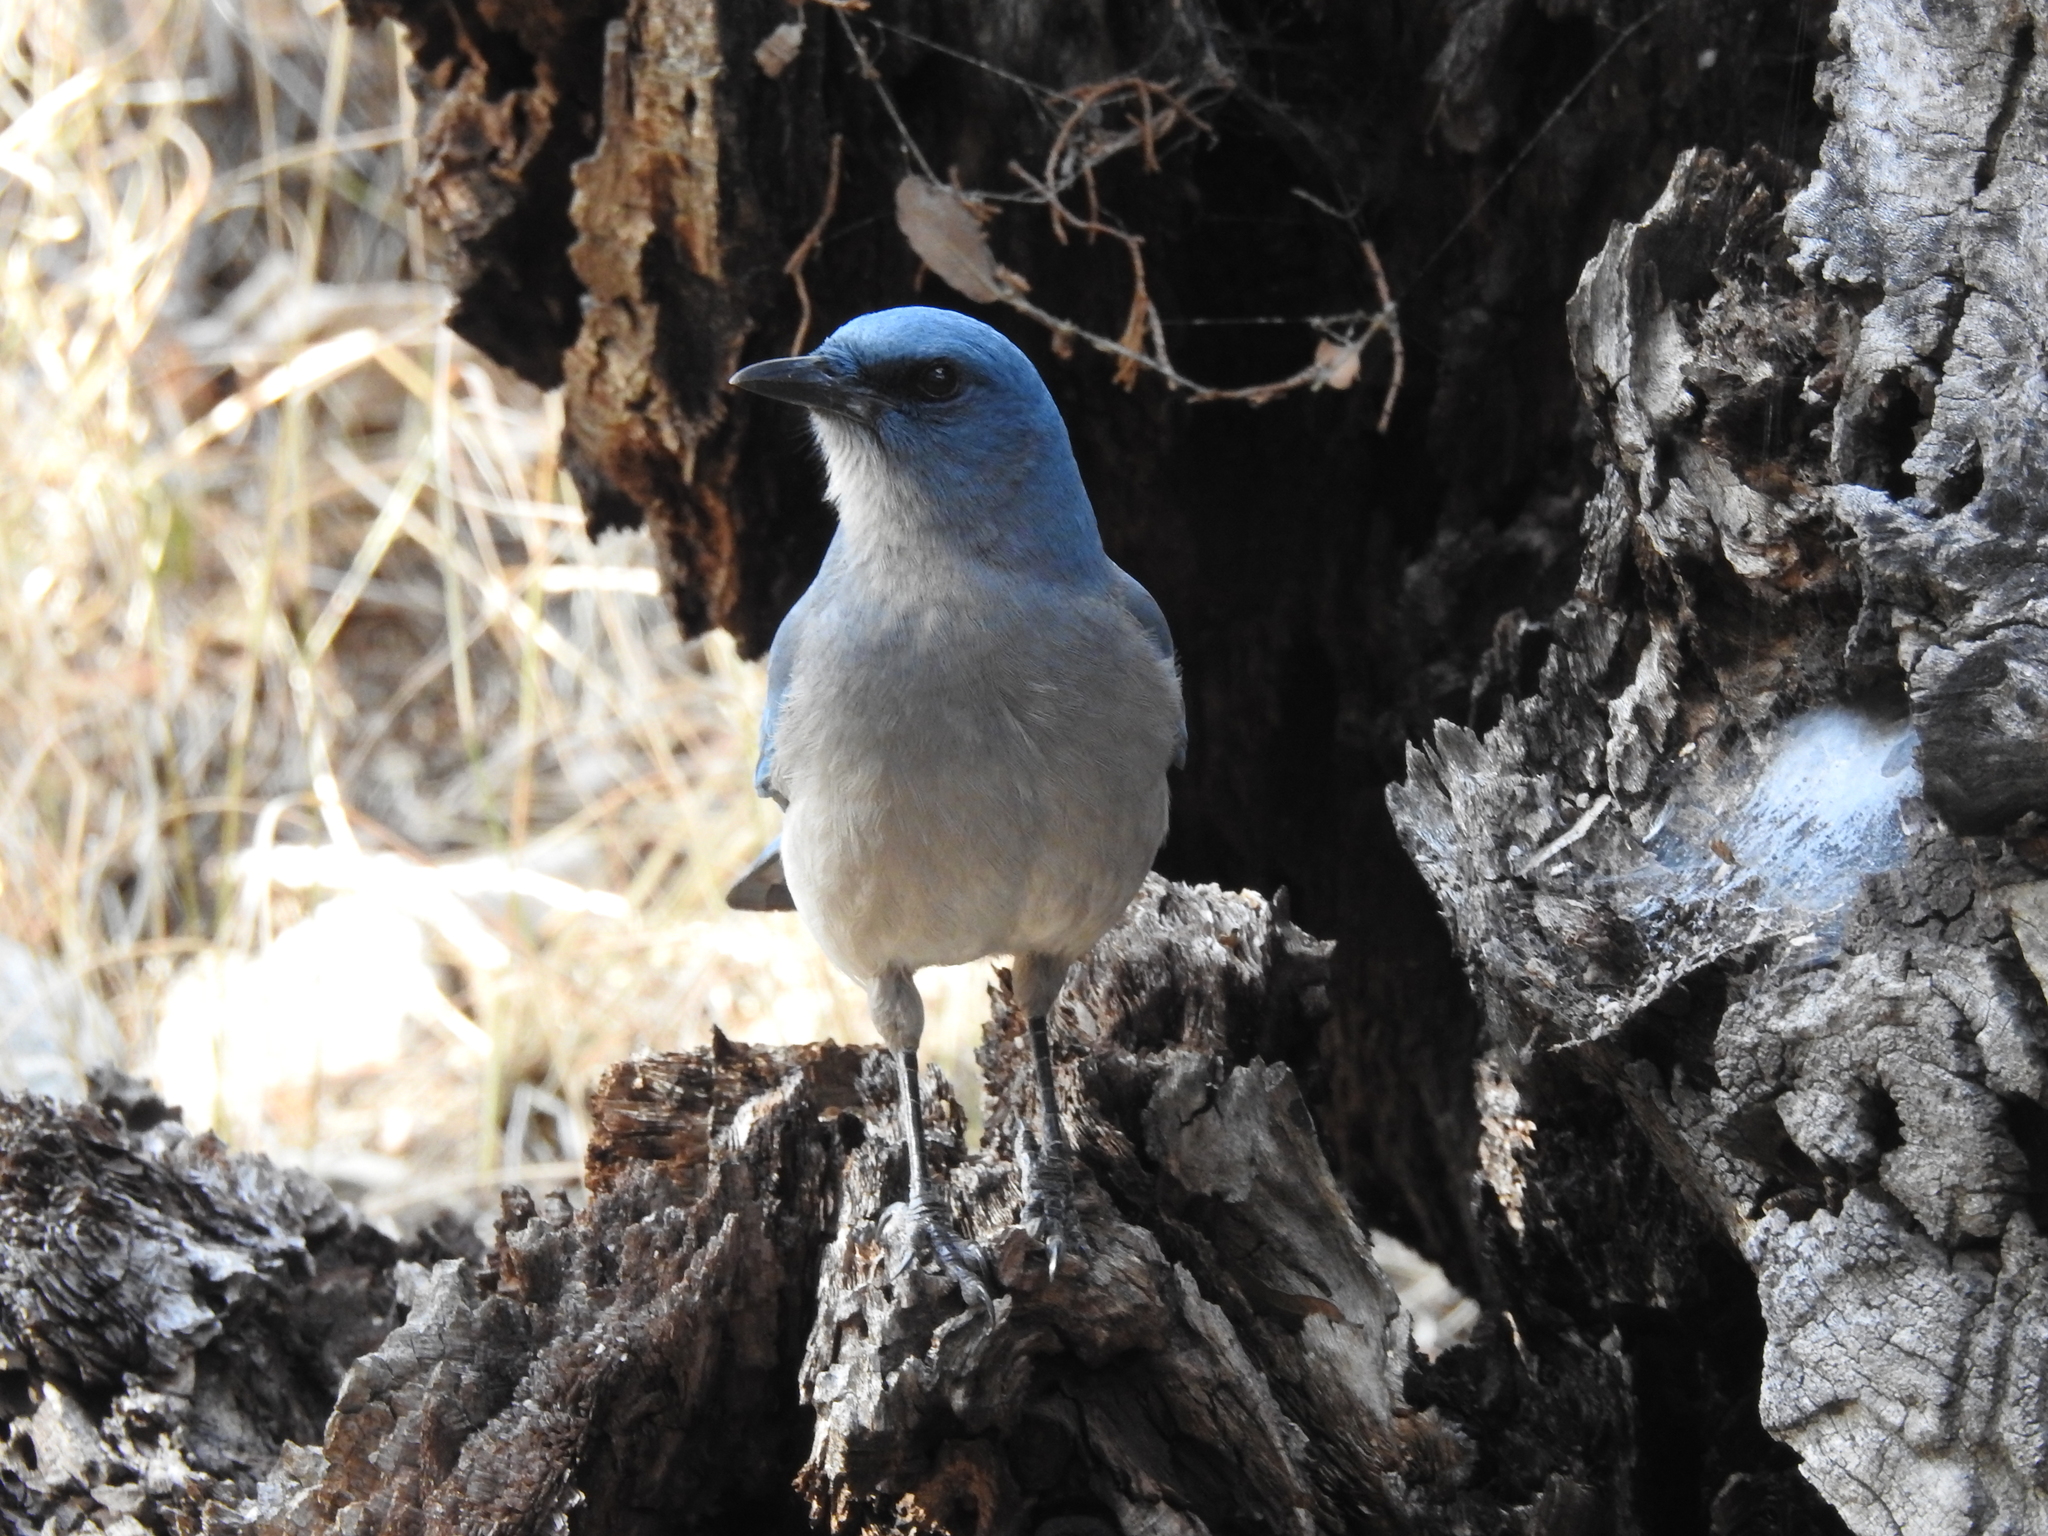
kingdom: Animalia
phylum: Chordata
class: Aves
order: Passeriformes
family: Corvidae
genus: Aphelocoma
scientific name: Aphelocoma wollweberi
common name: Mexican jay
